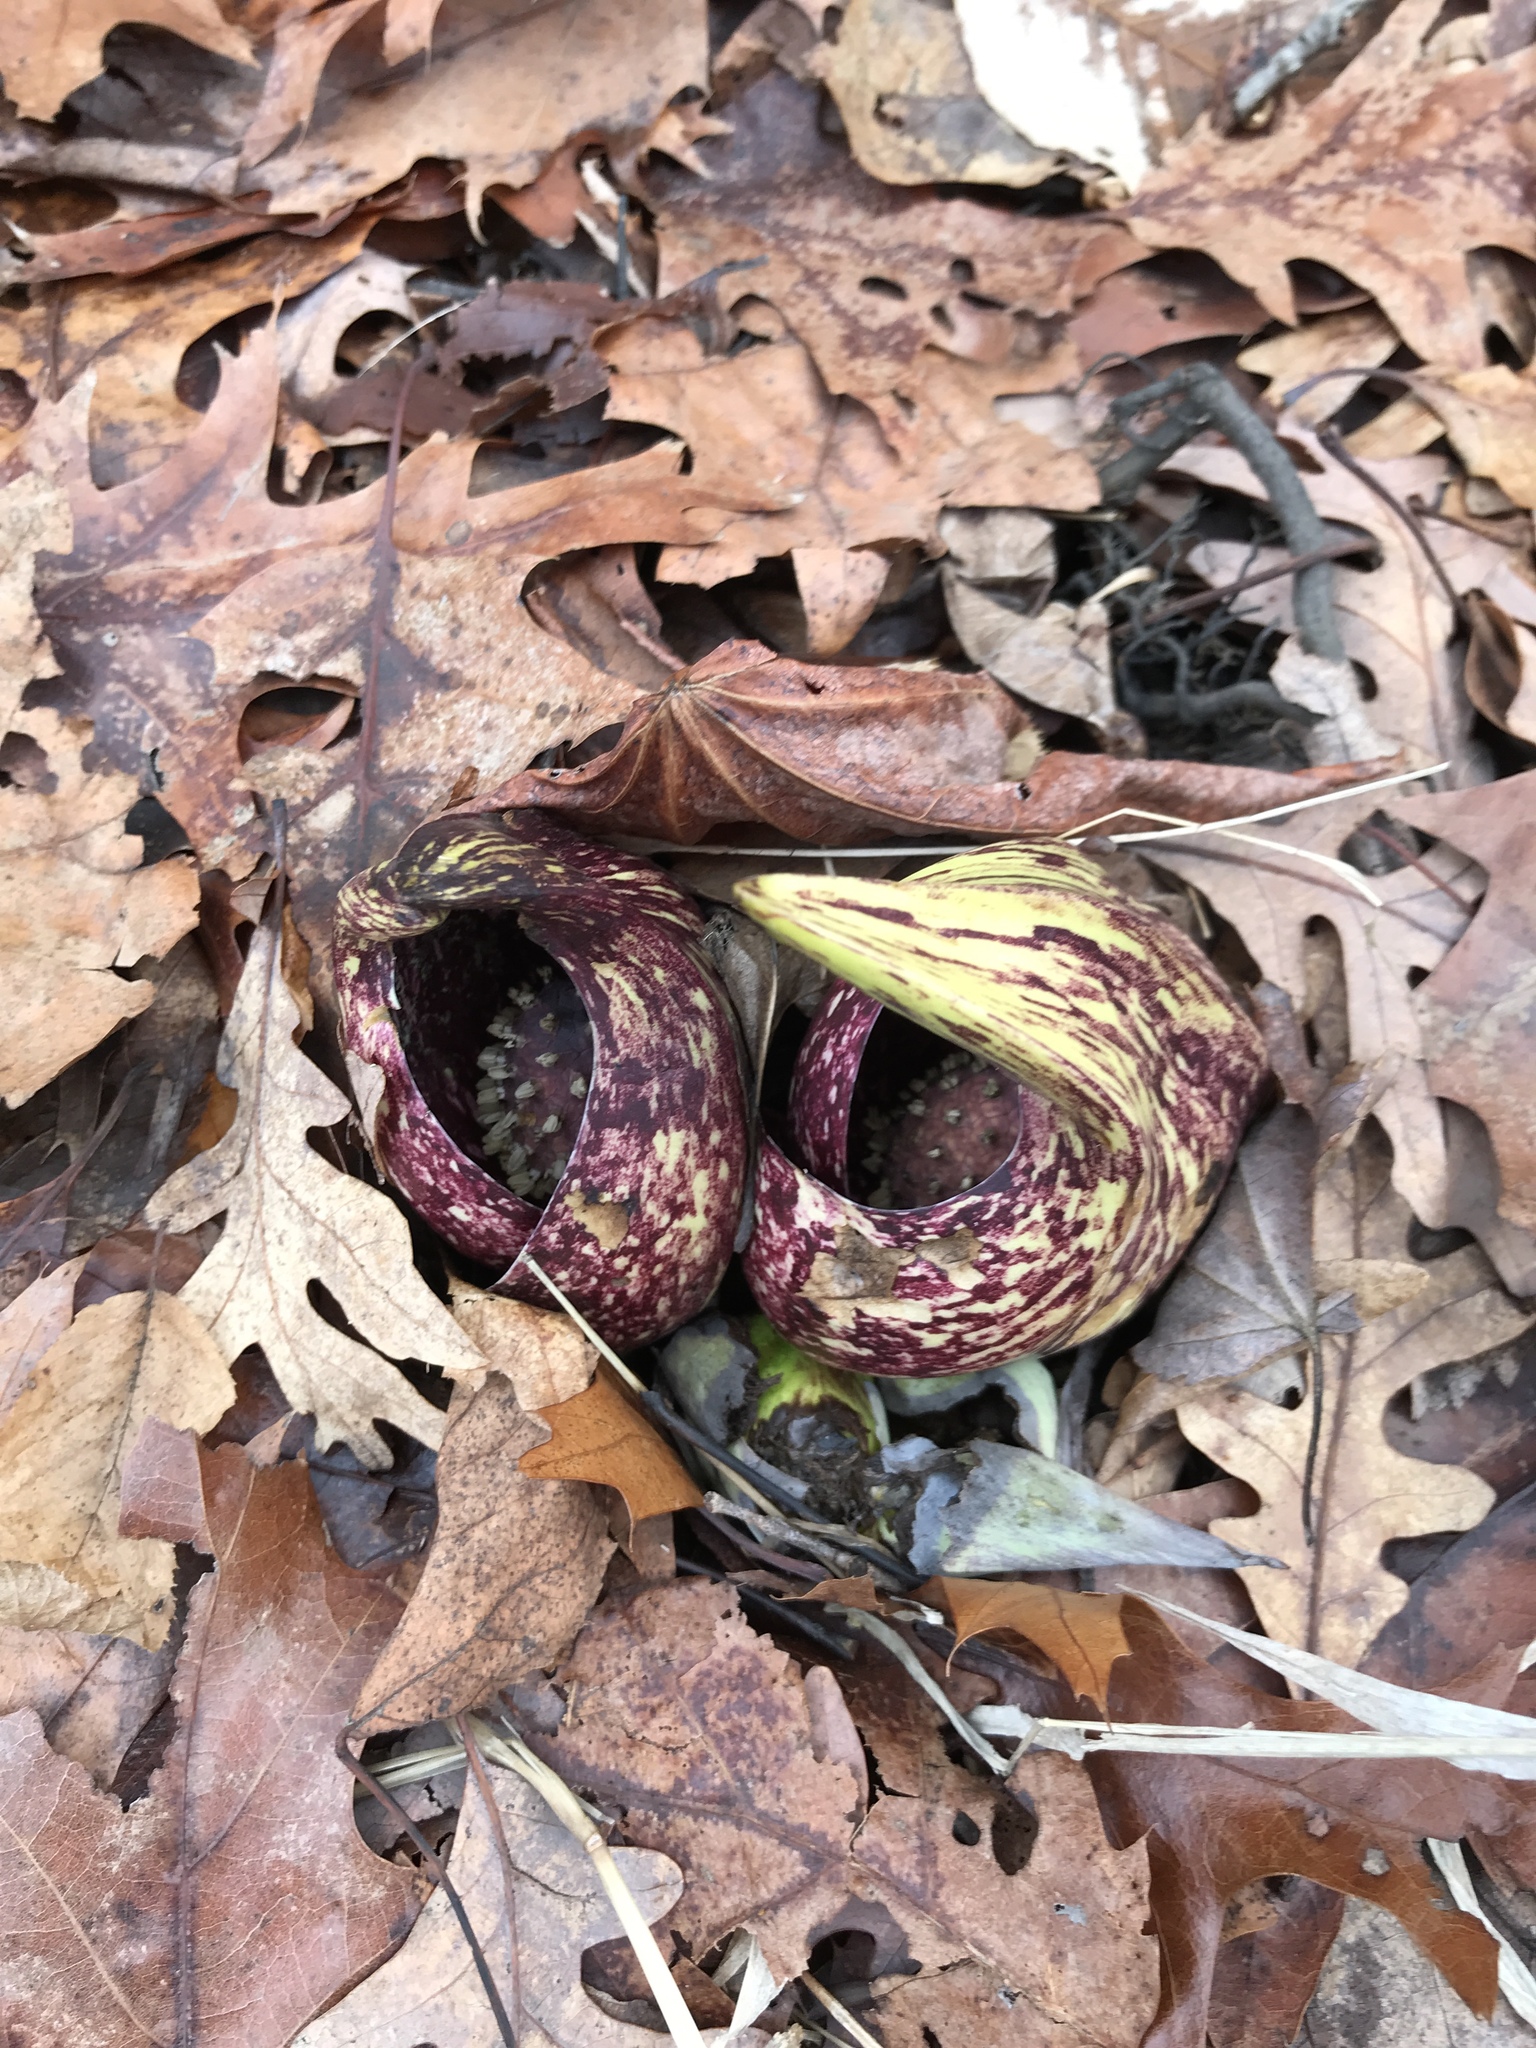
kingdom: Plantae
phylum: Tracheophyta
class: Liliopsida
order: Alismatales
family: Araceae
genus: Symplocarpus
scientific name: Symplocarpus foetidus
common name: Eastern skunk cabbage
